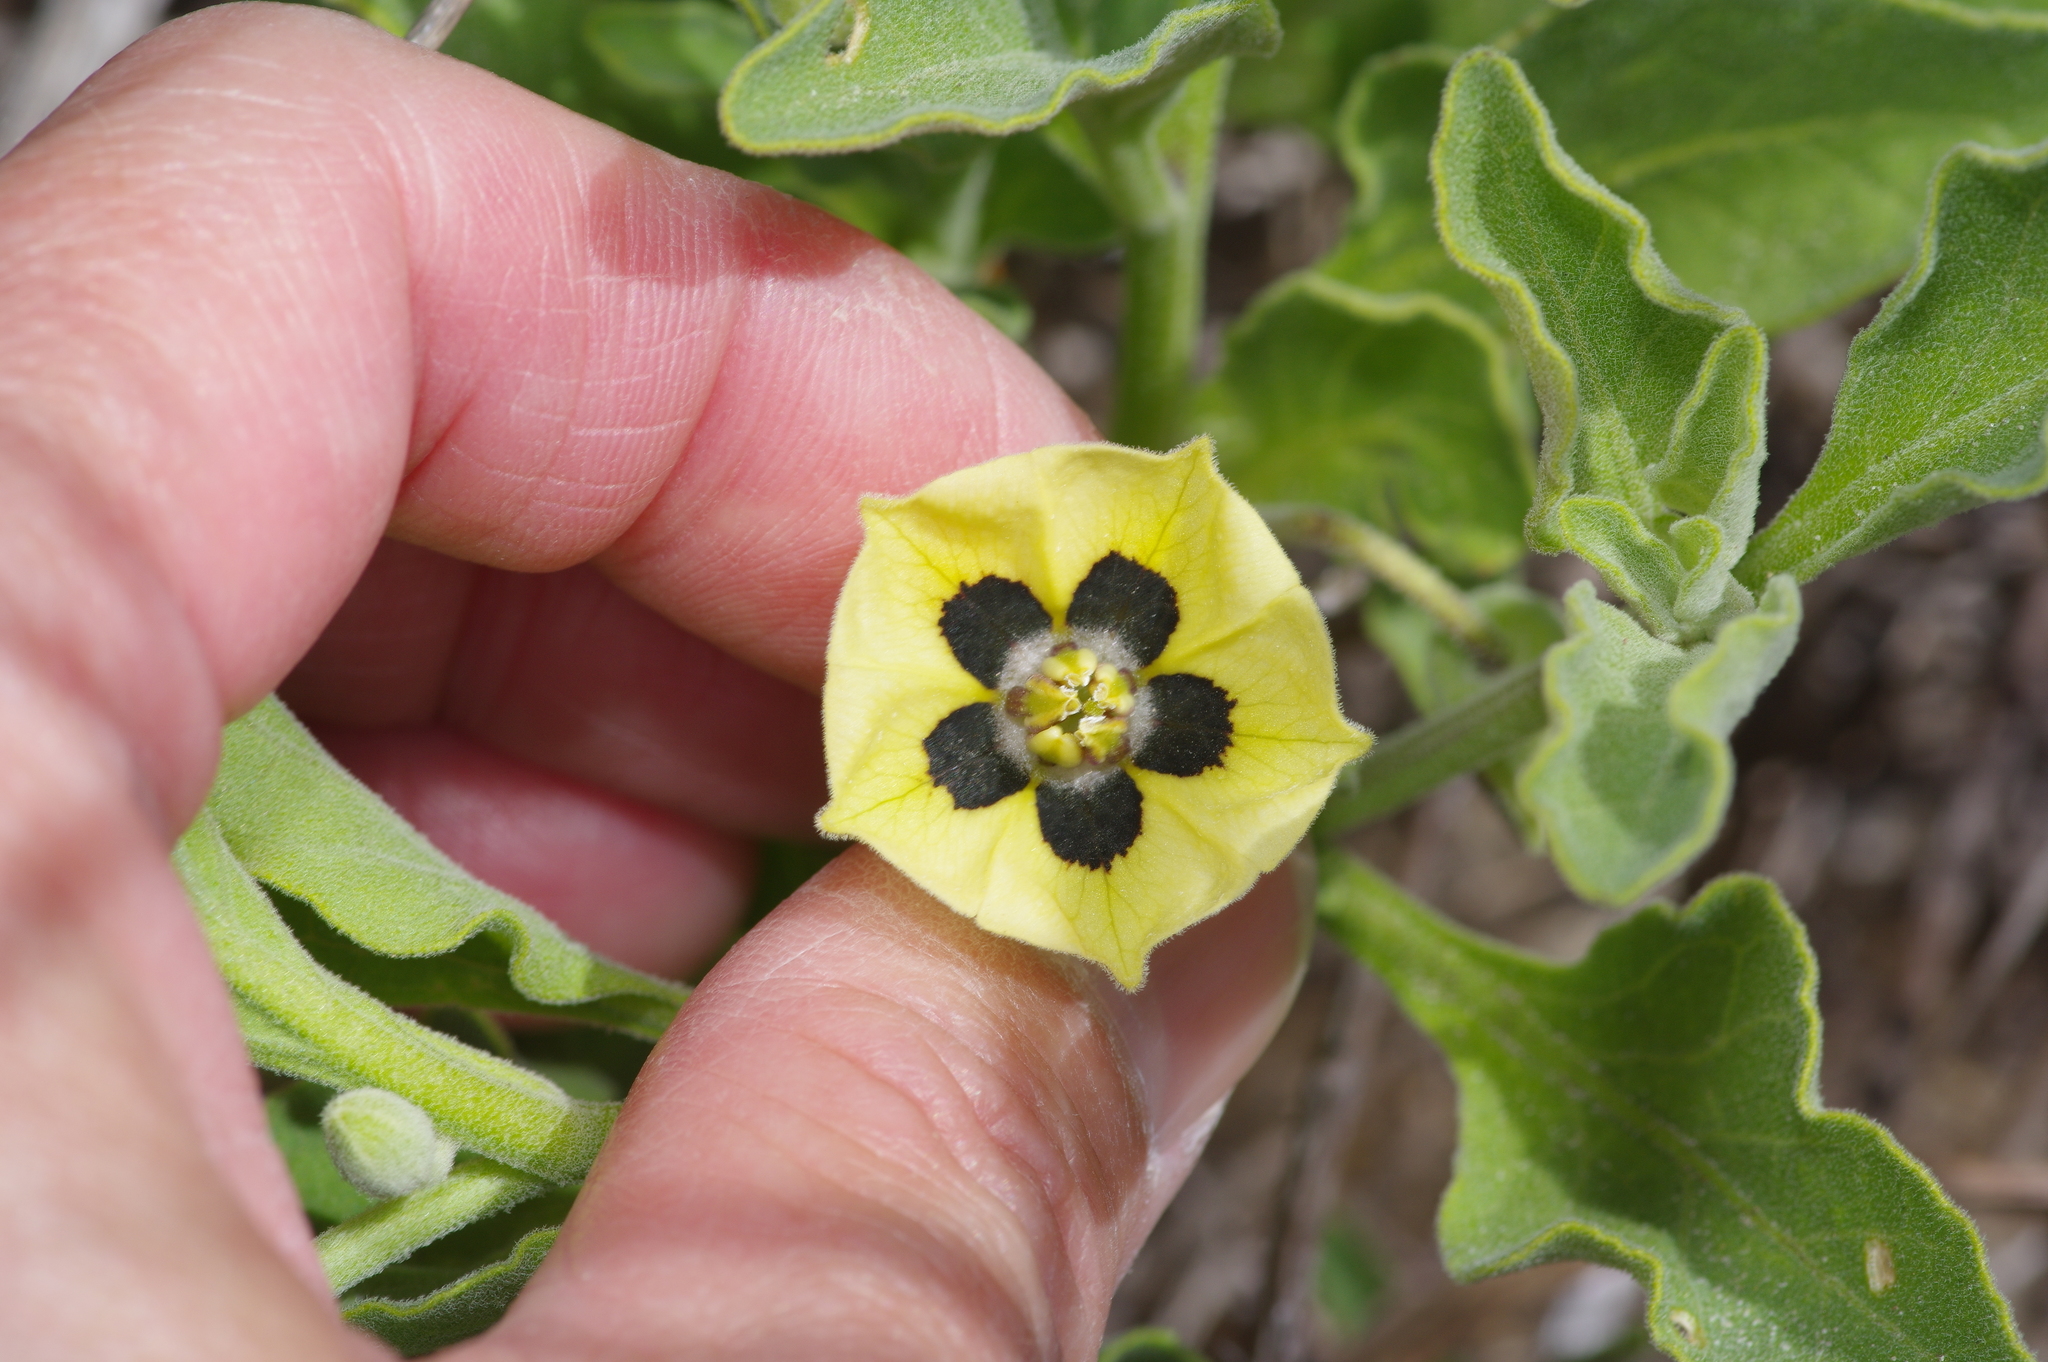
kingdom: Plantae
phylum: Tracheophyta
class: Magnoliopsida
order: Solanales
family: Solanaceae
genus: Physalis
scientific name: Physalis cinerascens
